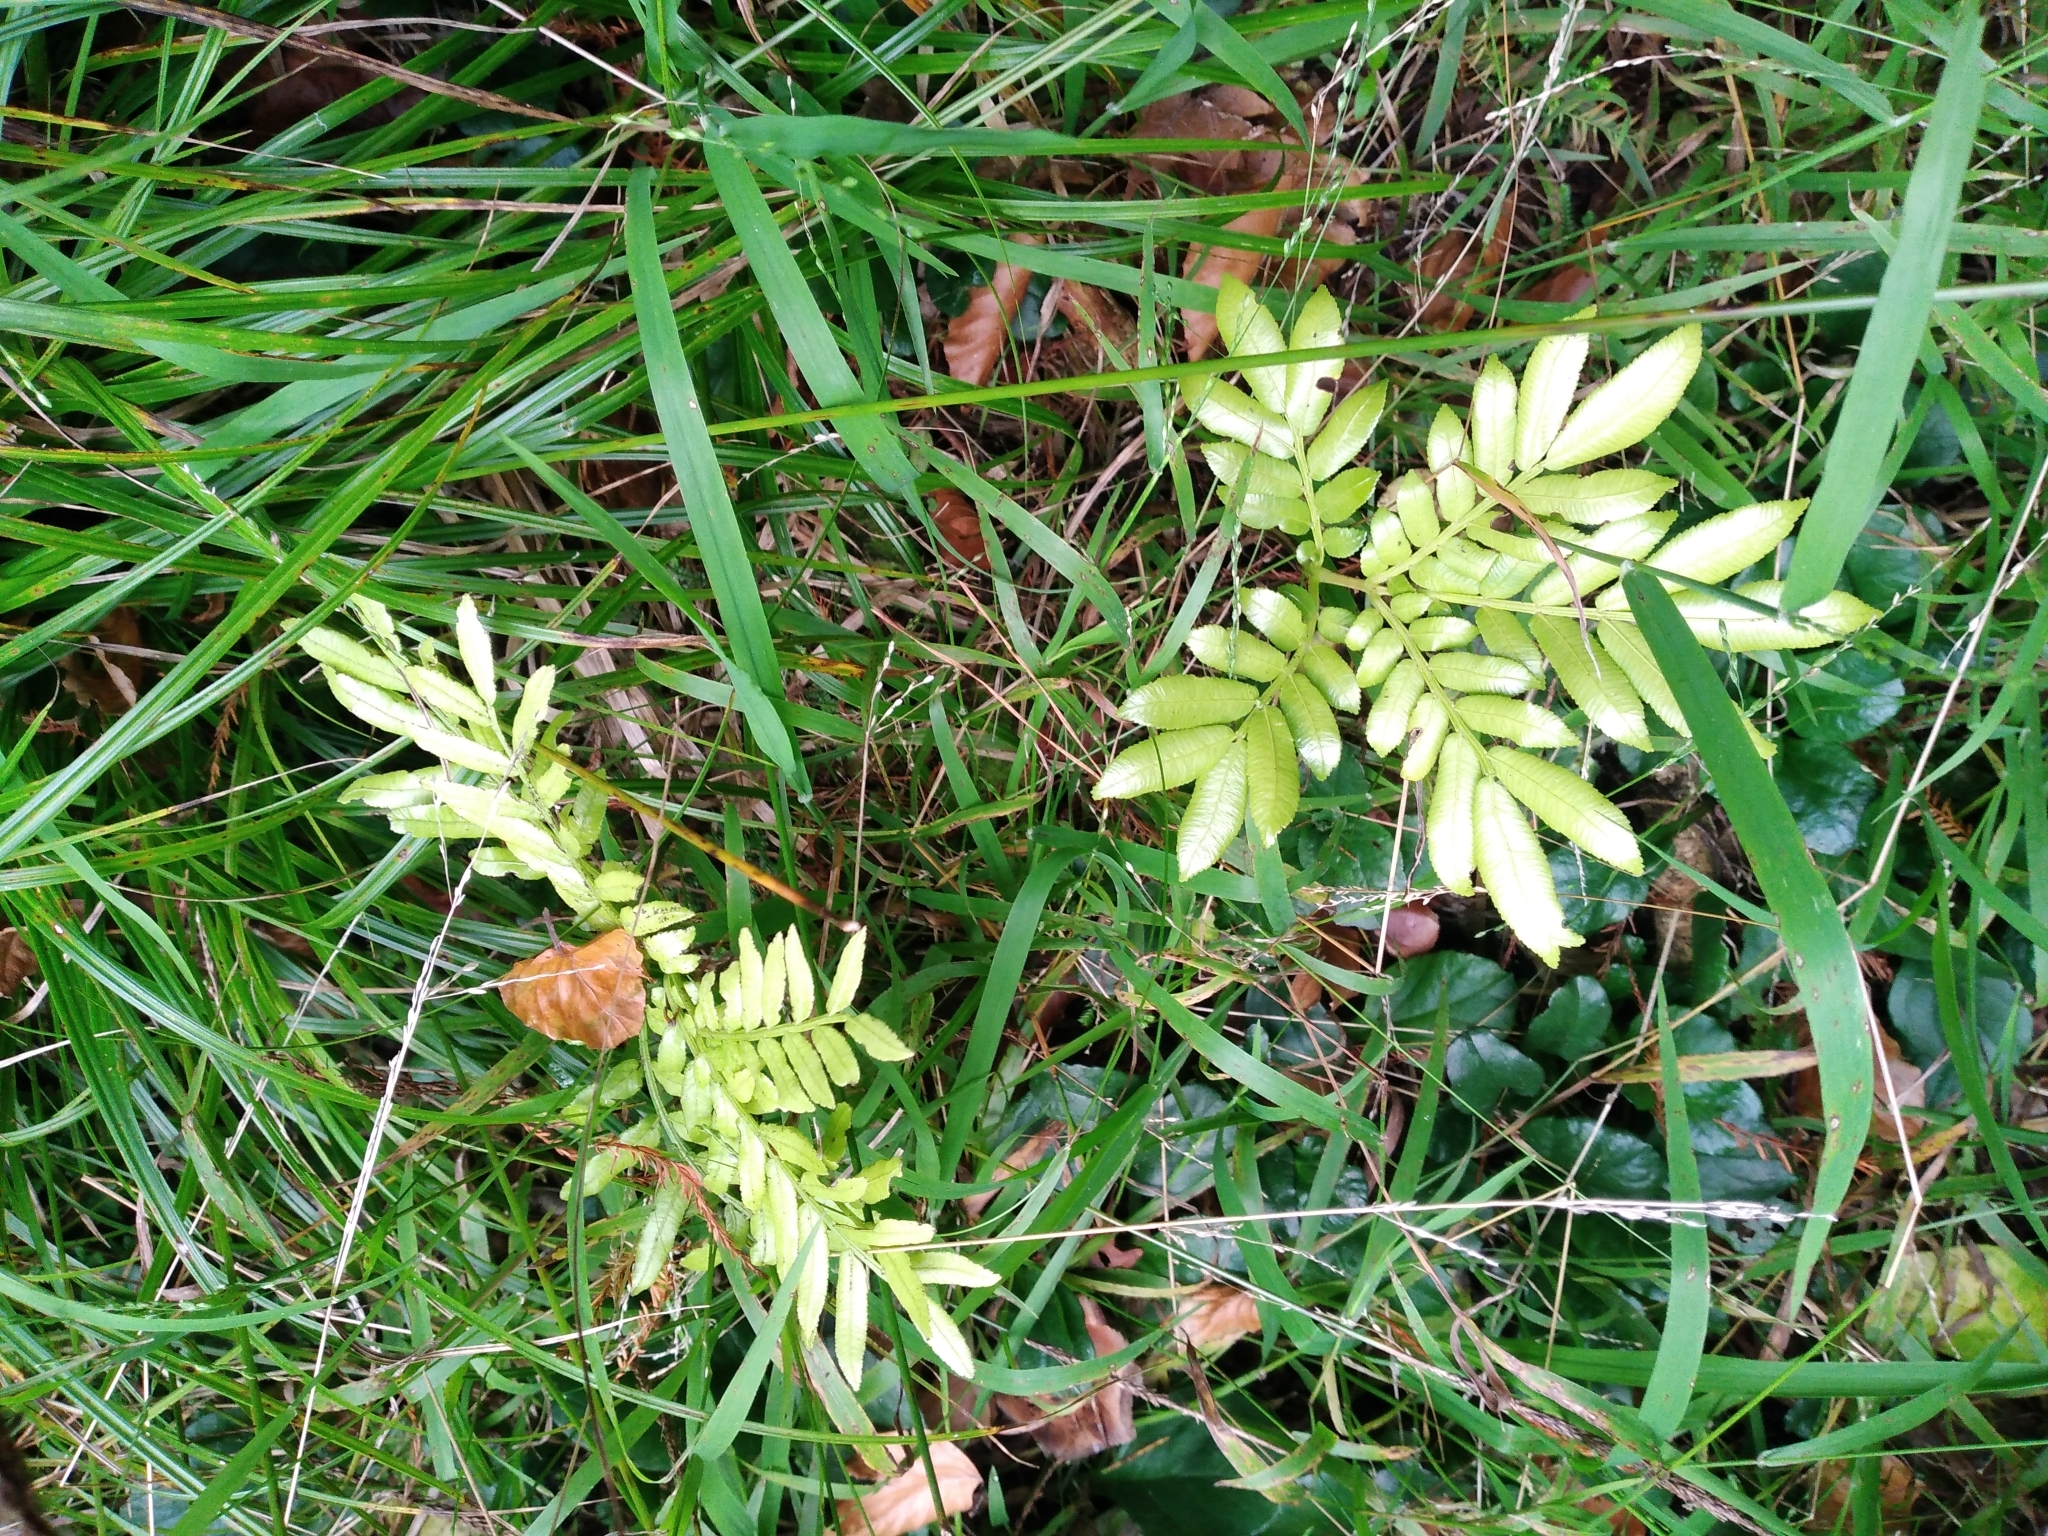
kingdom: Plantae
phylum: Tracheophyta
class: Polypodiopsida
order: Marattiales
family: Marattiaceae
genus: Ptisana
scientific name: Ptisana salicina
